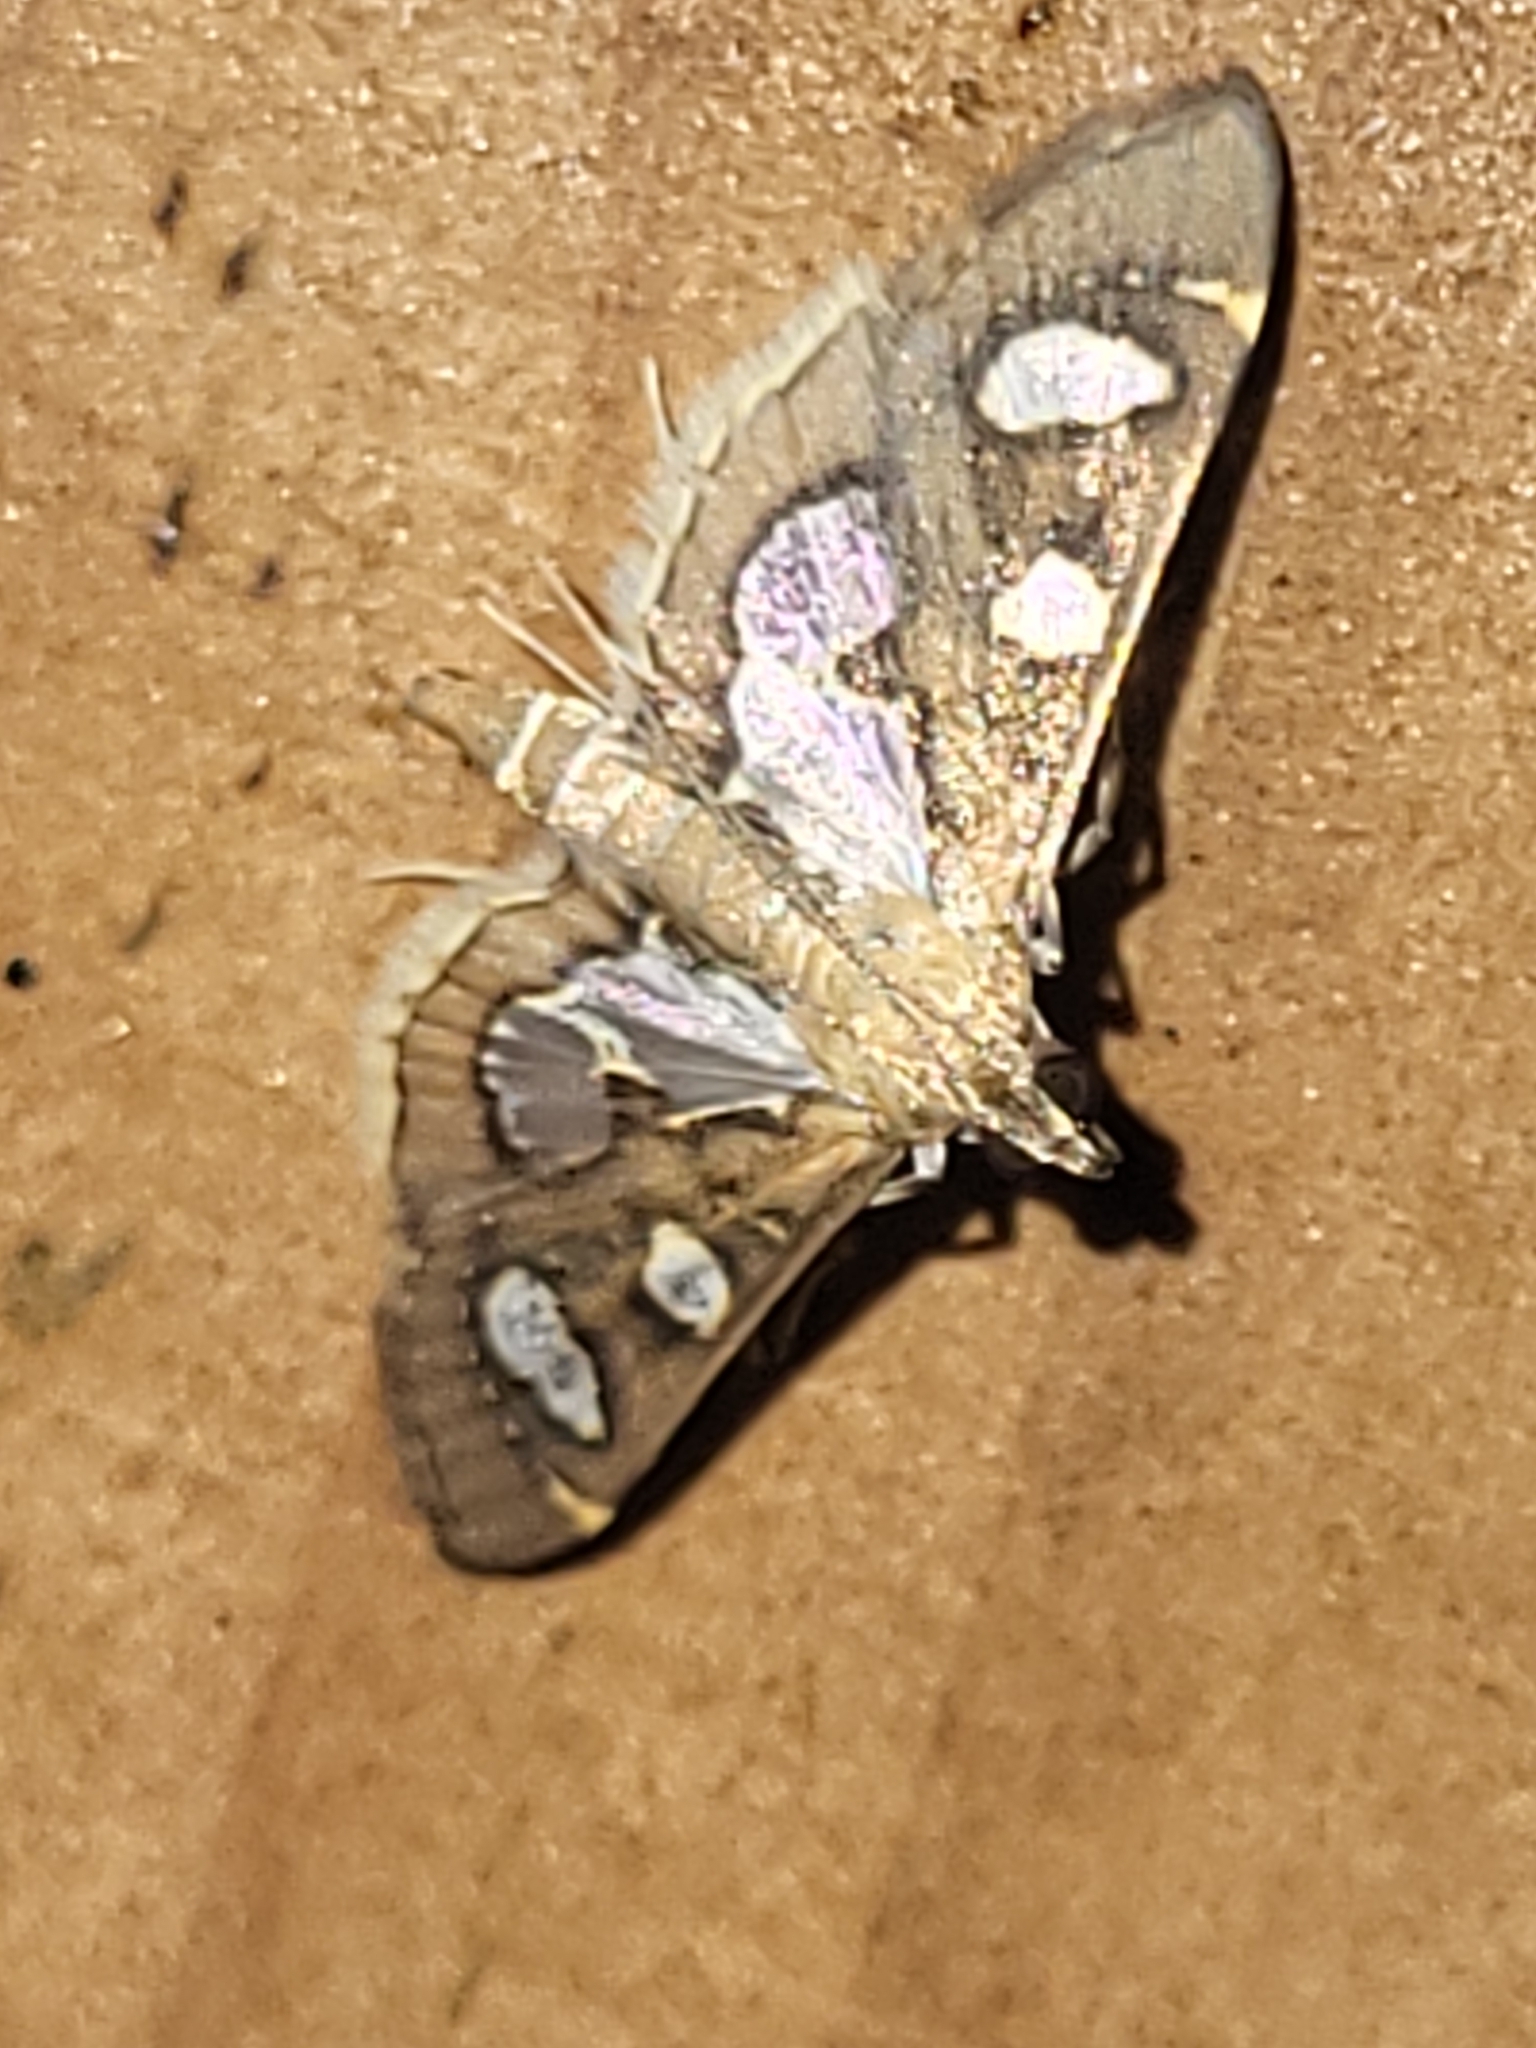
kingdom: Animalia
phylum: Arthropoda
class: Insecta
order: Lepidoptera
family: Crambidae
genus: Bocchoris
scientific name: Bocchoris borbonensis
